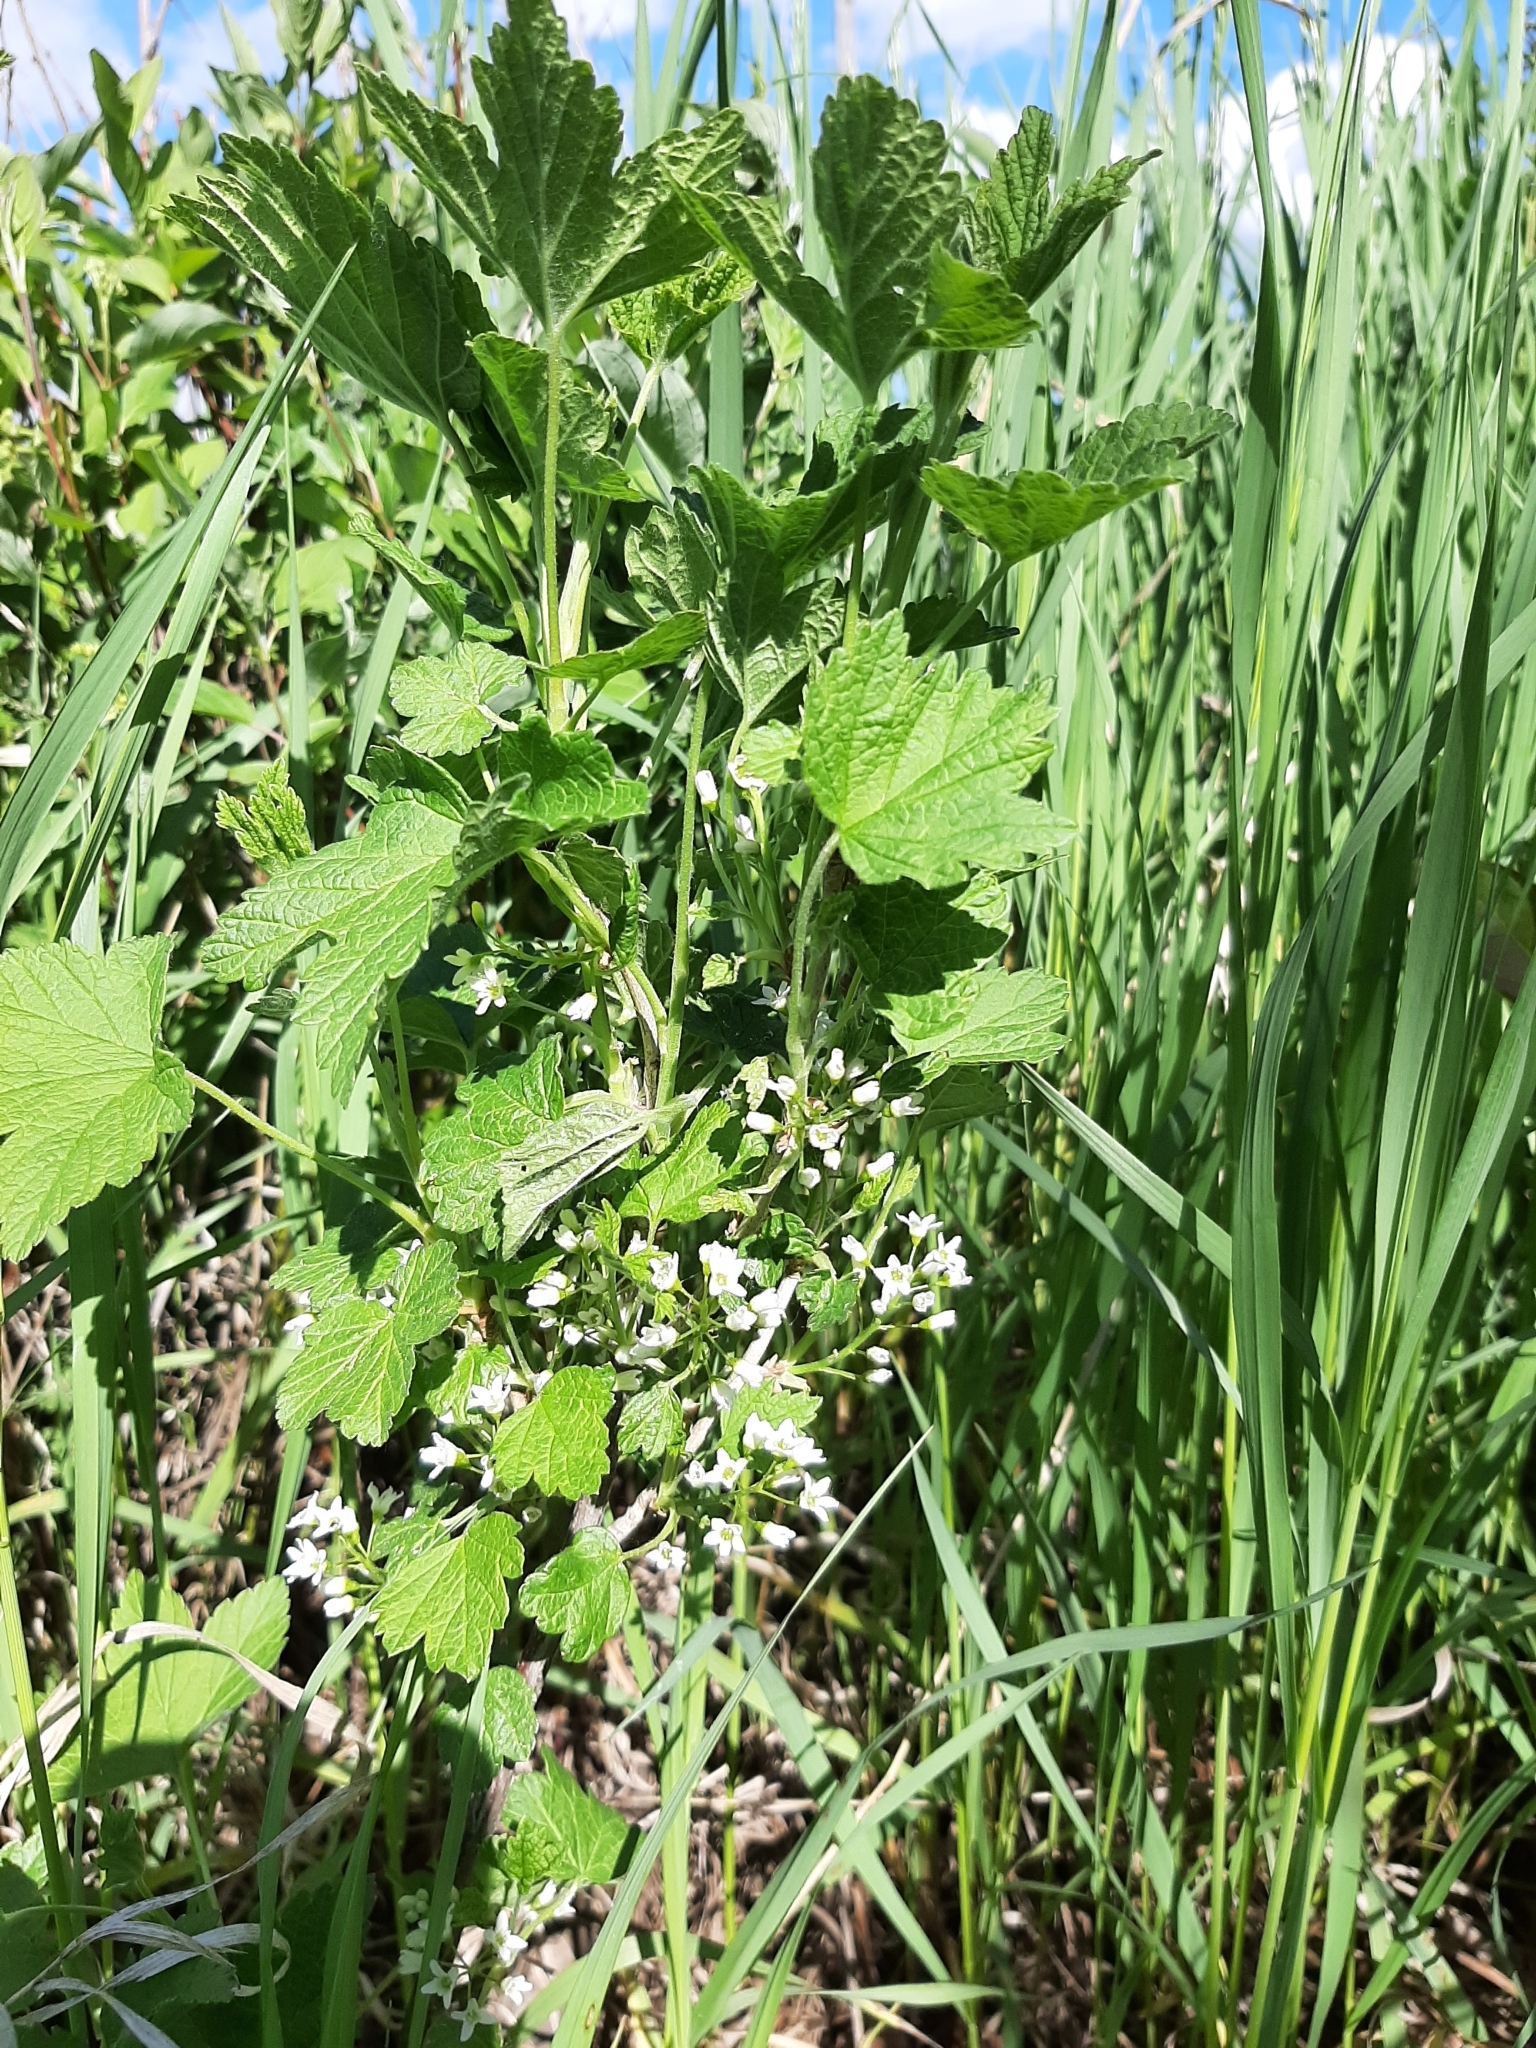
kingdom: Plantae
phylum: Tracheophyta
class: Magnoliopsida
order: Saxifragales
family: Grossulariaceae
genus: Ribes
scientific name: Ribes hudsonianum
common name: Northern black currant
